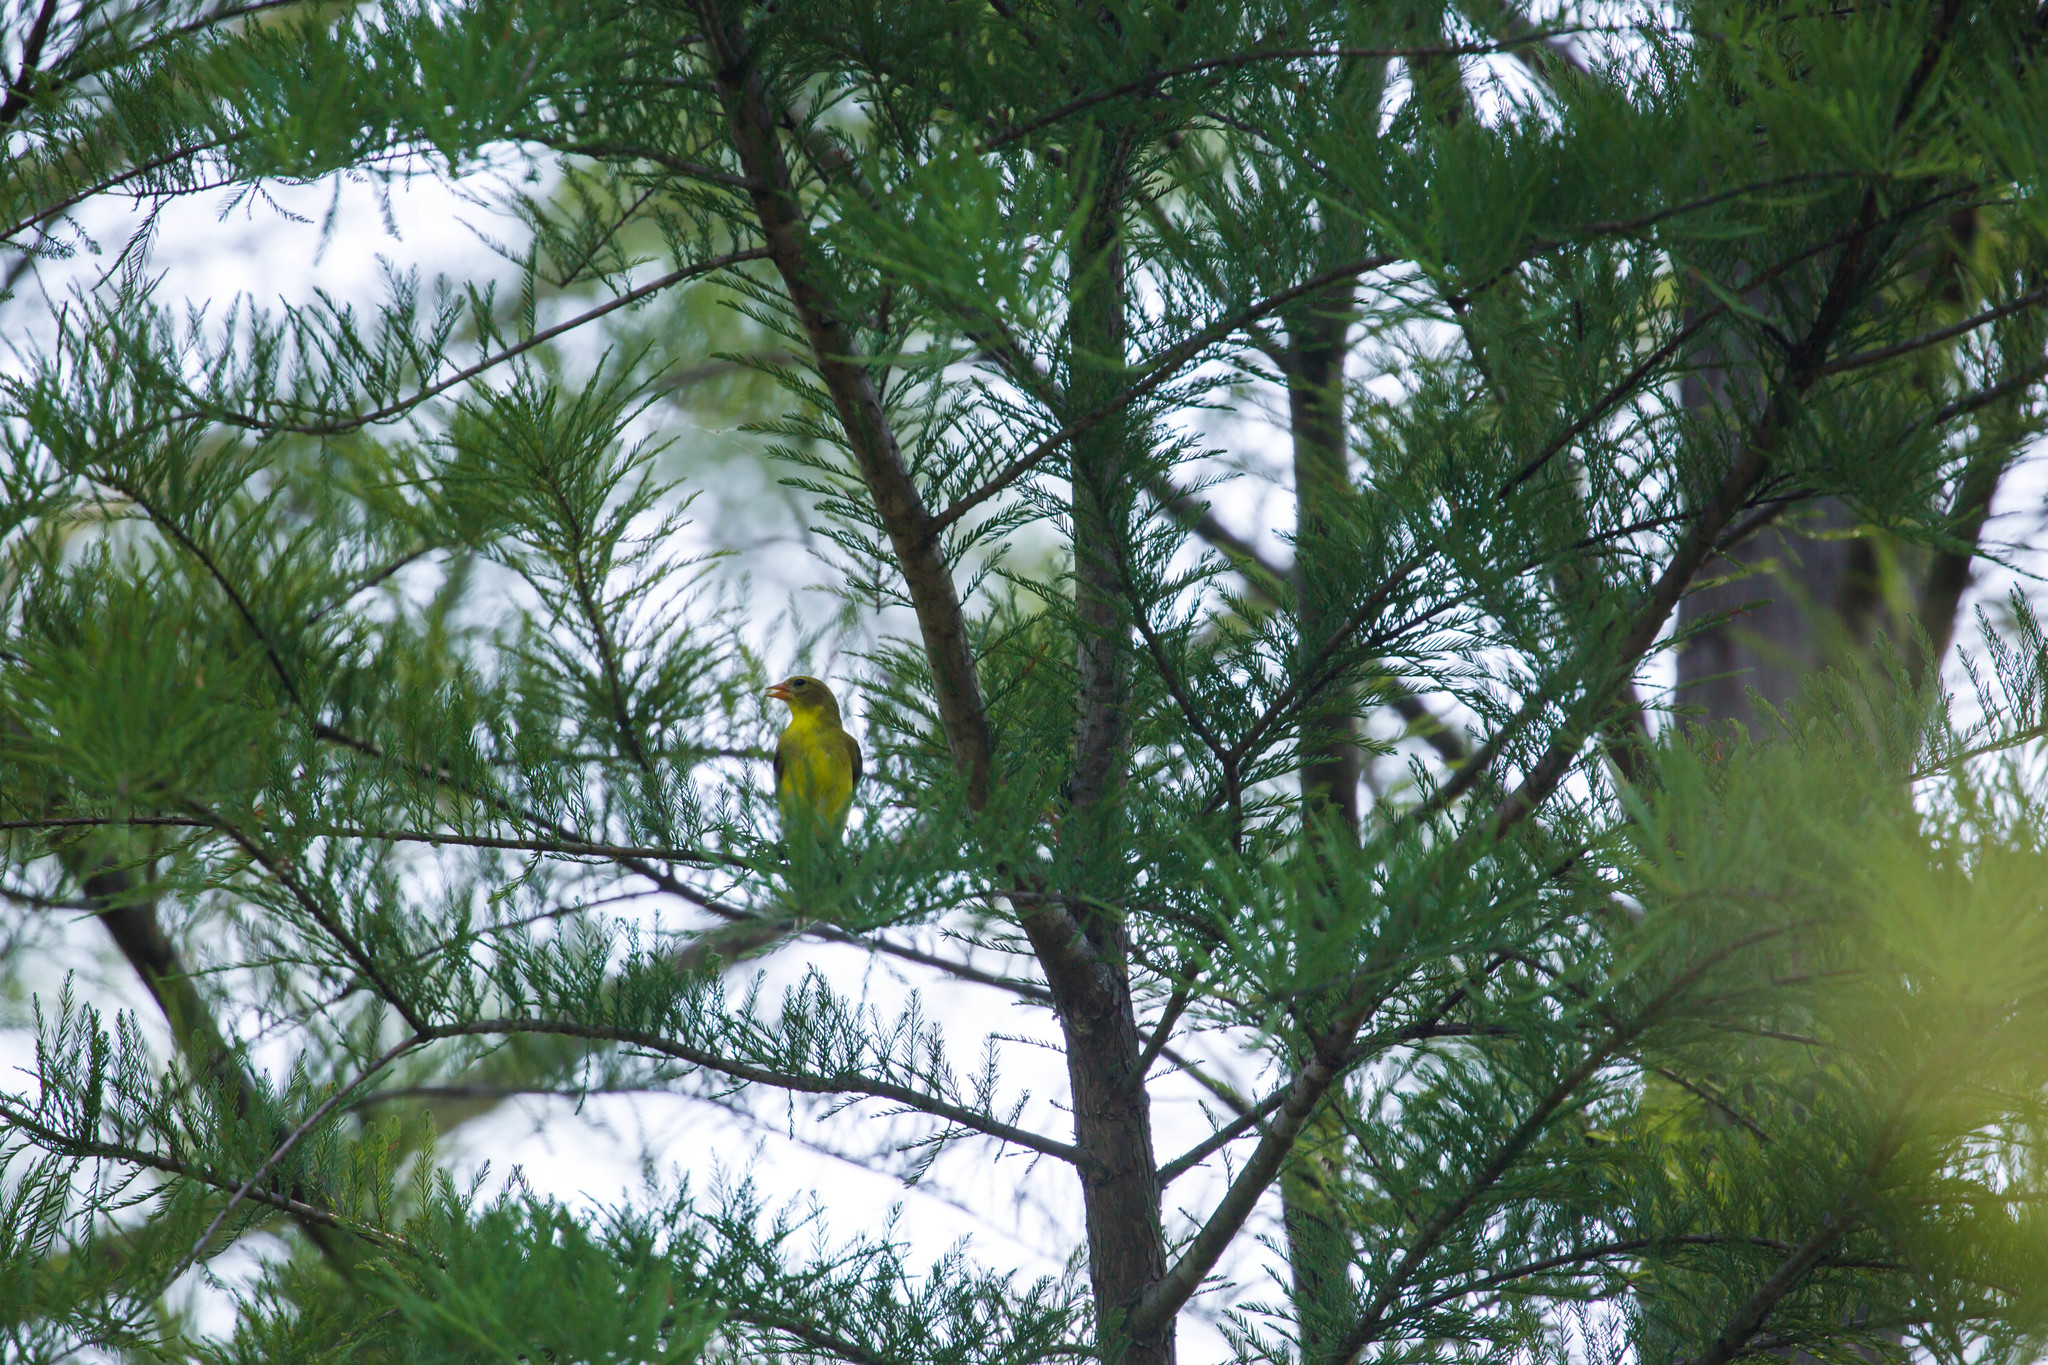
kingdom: Animalia
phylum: Chordata
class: Aves
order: Passeriformes
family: Fringillidae
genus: Spinus
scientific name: Spinus tristis
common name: American goldfinch
